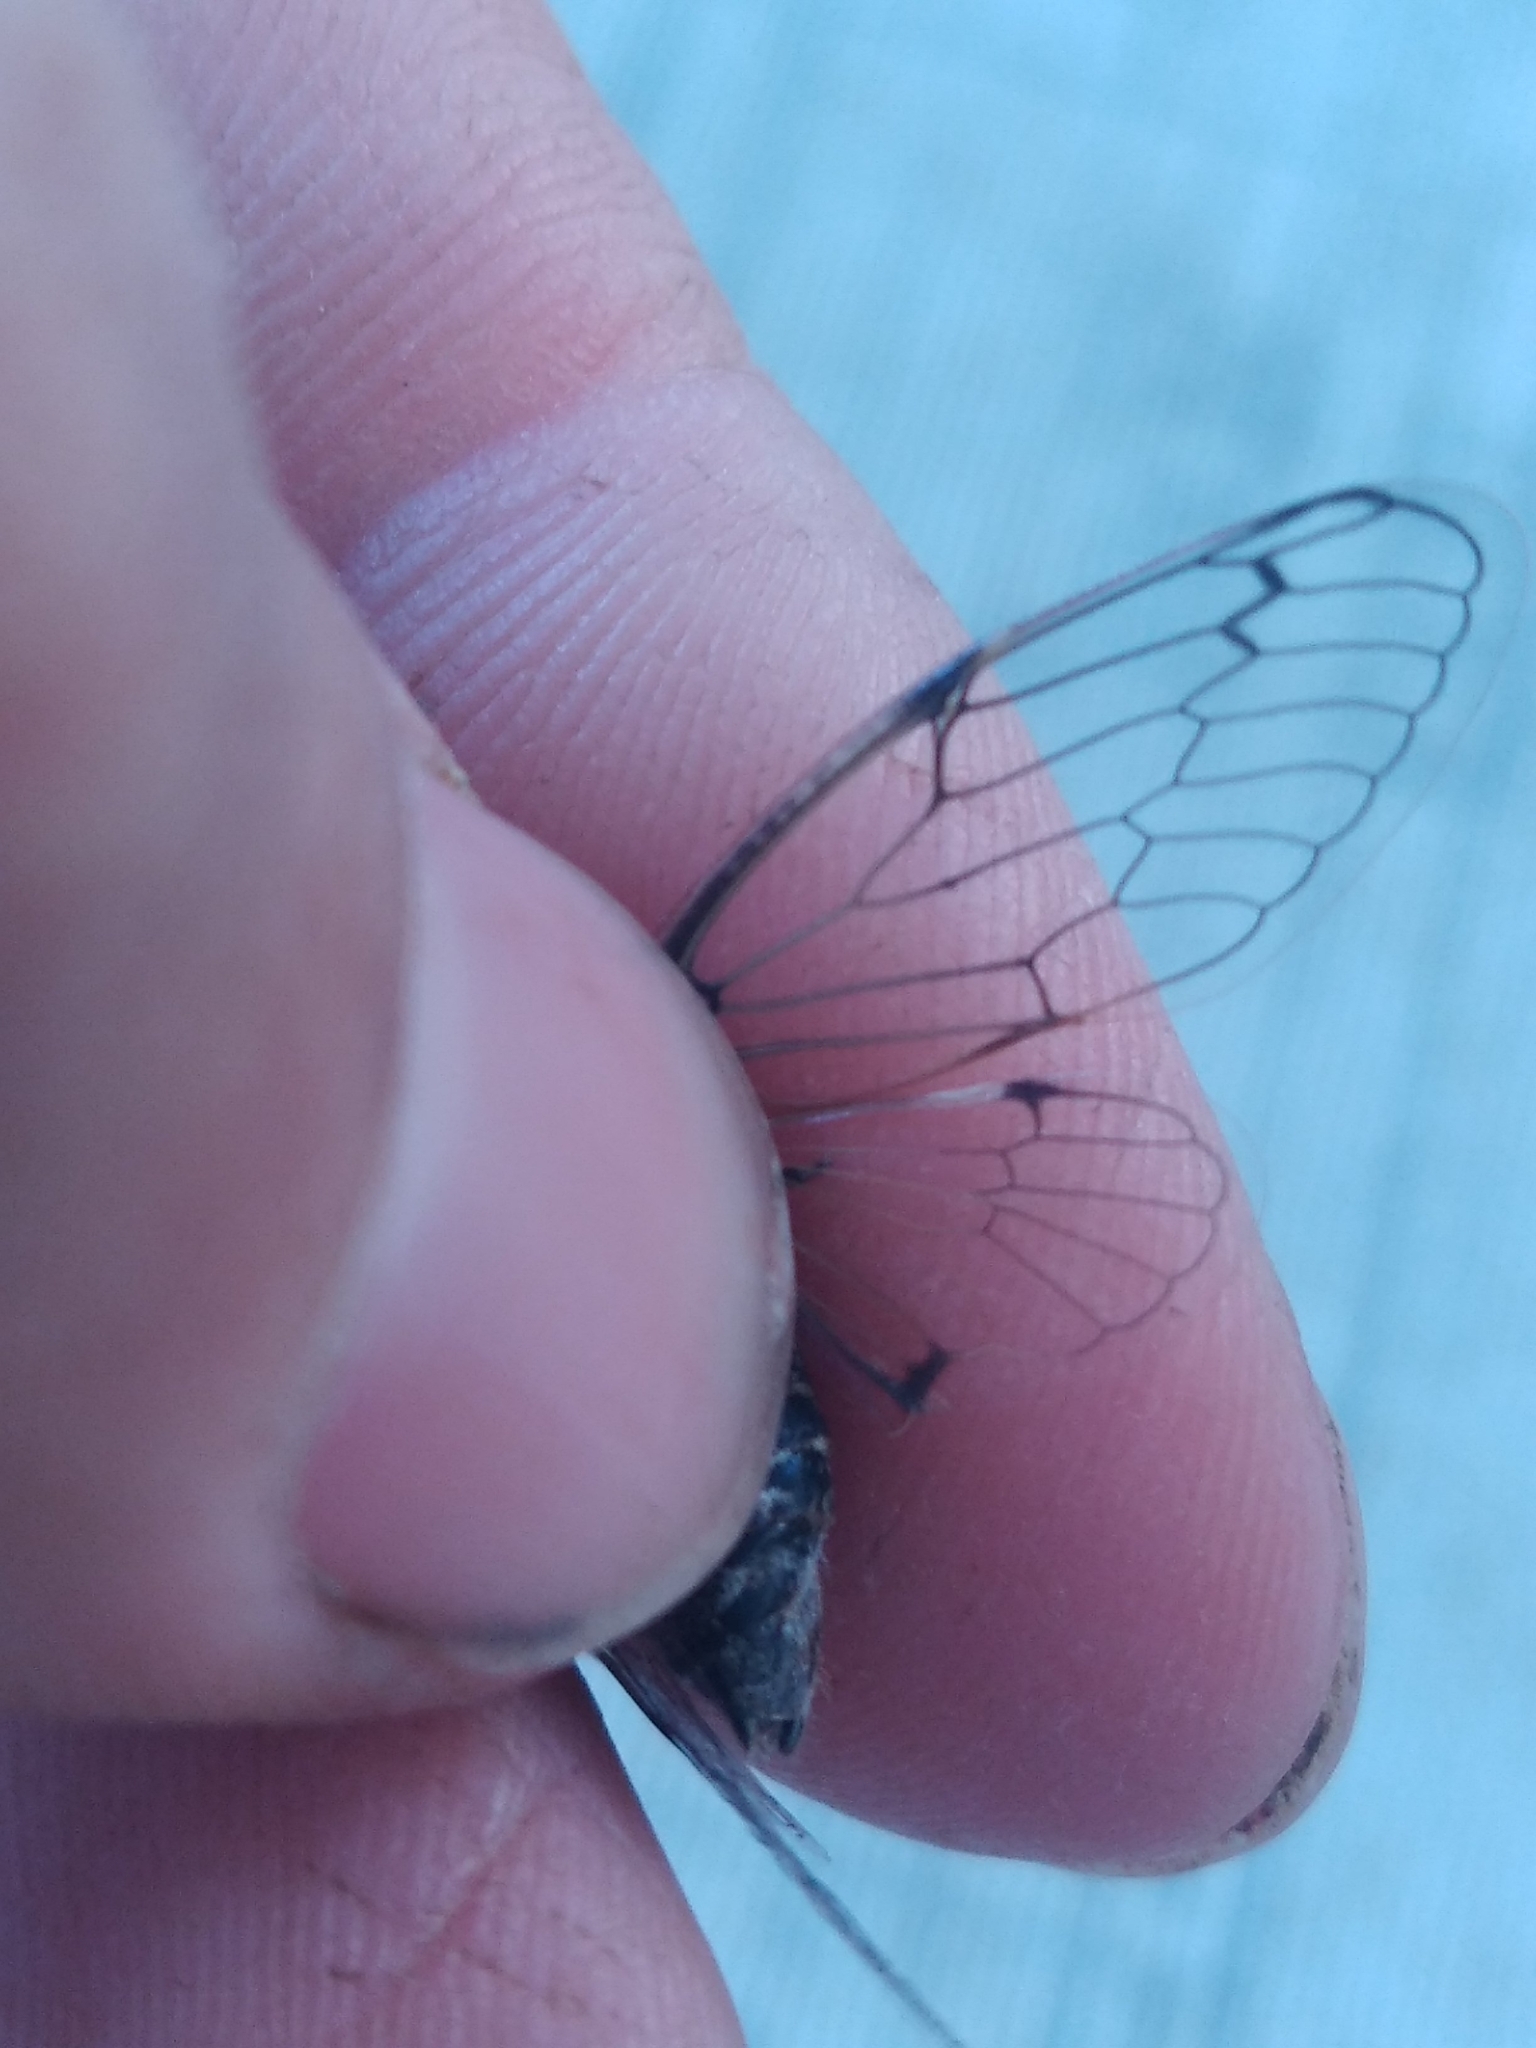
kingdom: Animalia
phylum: Arthropoda
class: Insecta
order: Hemiptera
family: Cicadidae
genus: Cicadatra
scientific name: Cicadatra atra
